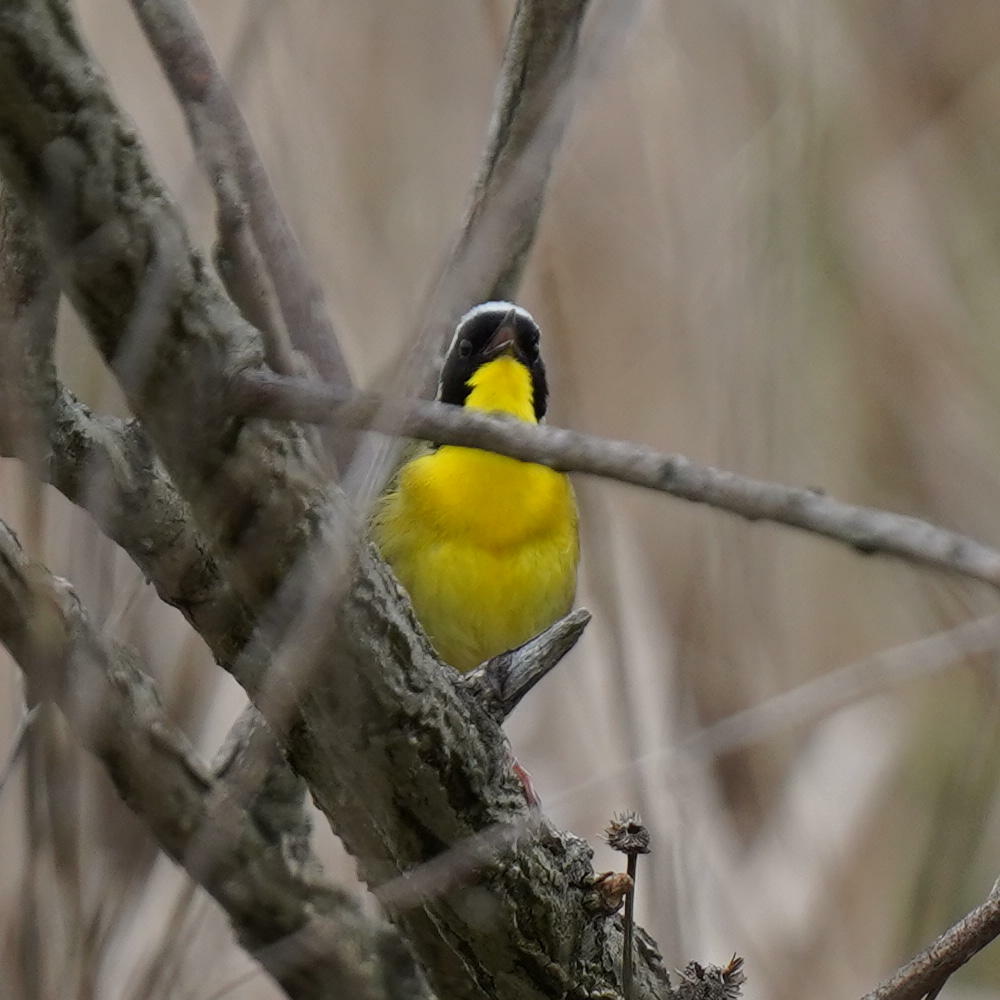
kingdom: Animalia
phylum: Chordata
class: Aves
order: Passeriformes
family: Parulidae
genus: Geothlypis
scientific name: Geothlypis trichas
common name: Common yellowthroat
